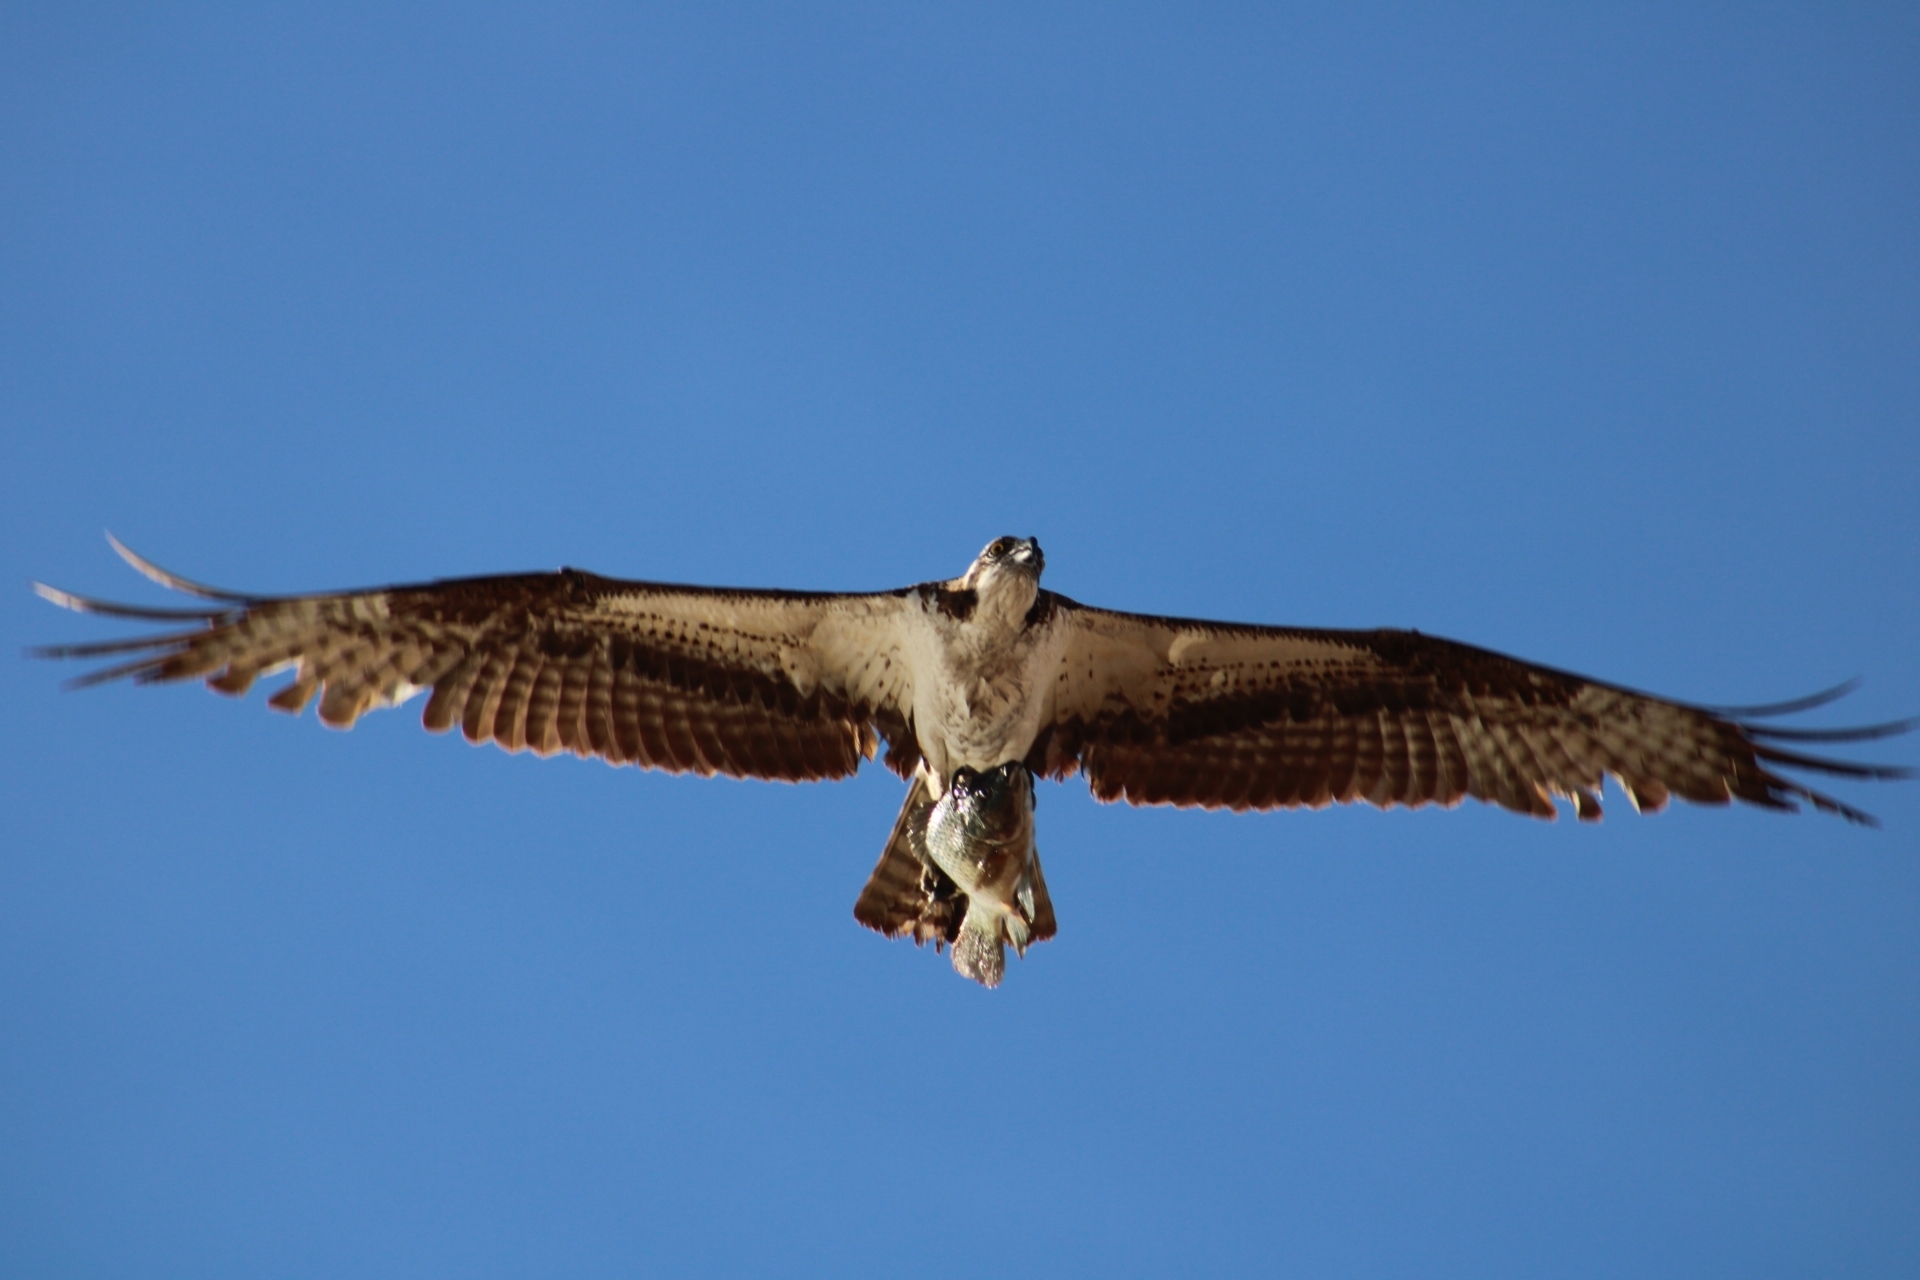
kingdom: Animalia
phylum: Chordata
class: Aves
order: Accipitriformes
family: Pandionidae
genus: Pandion
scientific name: Pandion haliaetus
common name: Osprey
